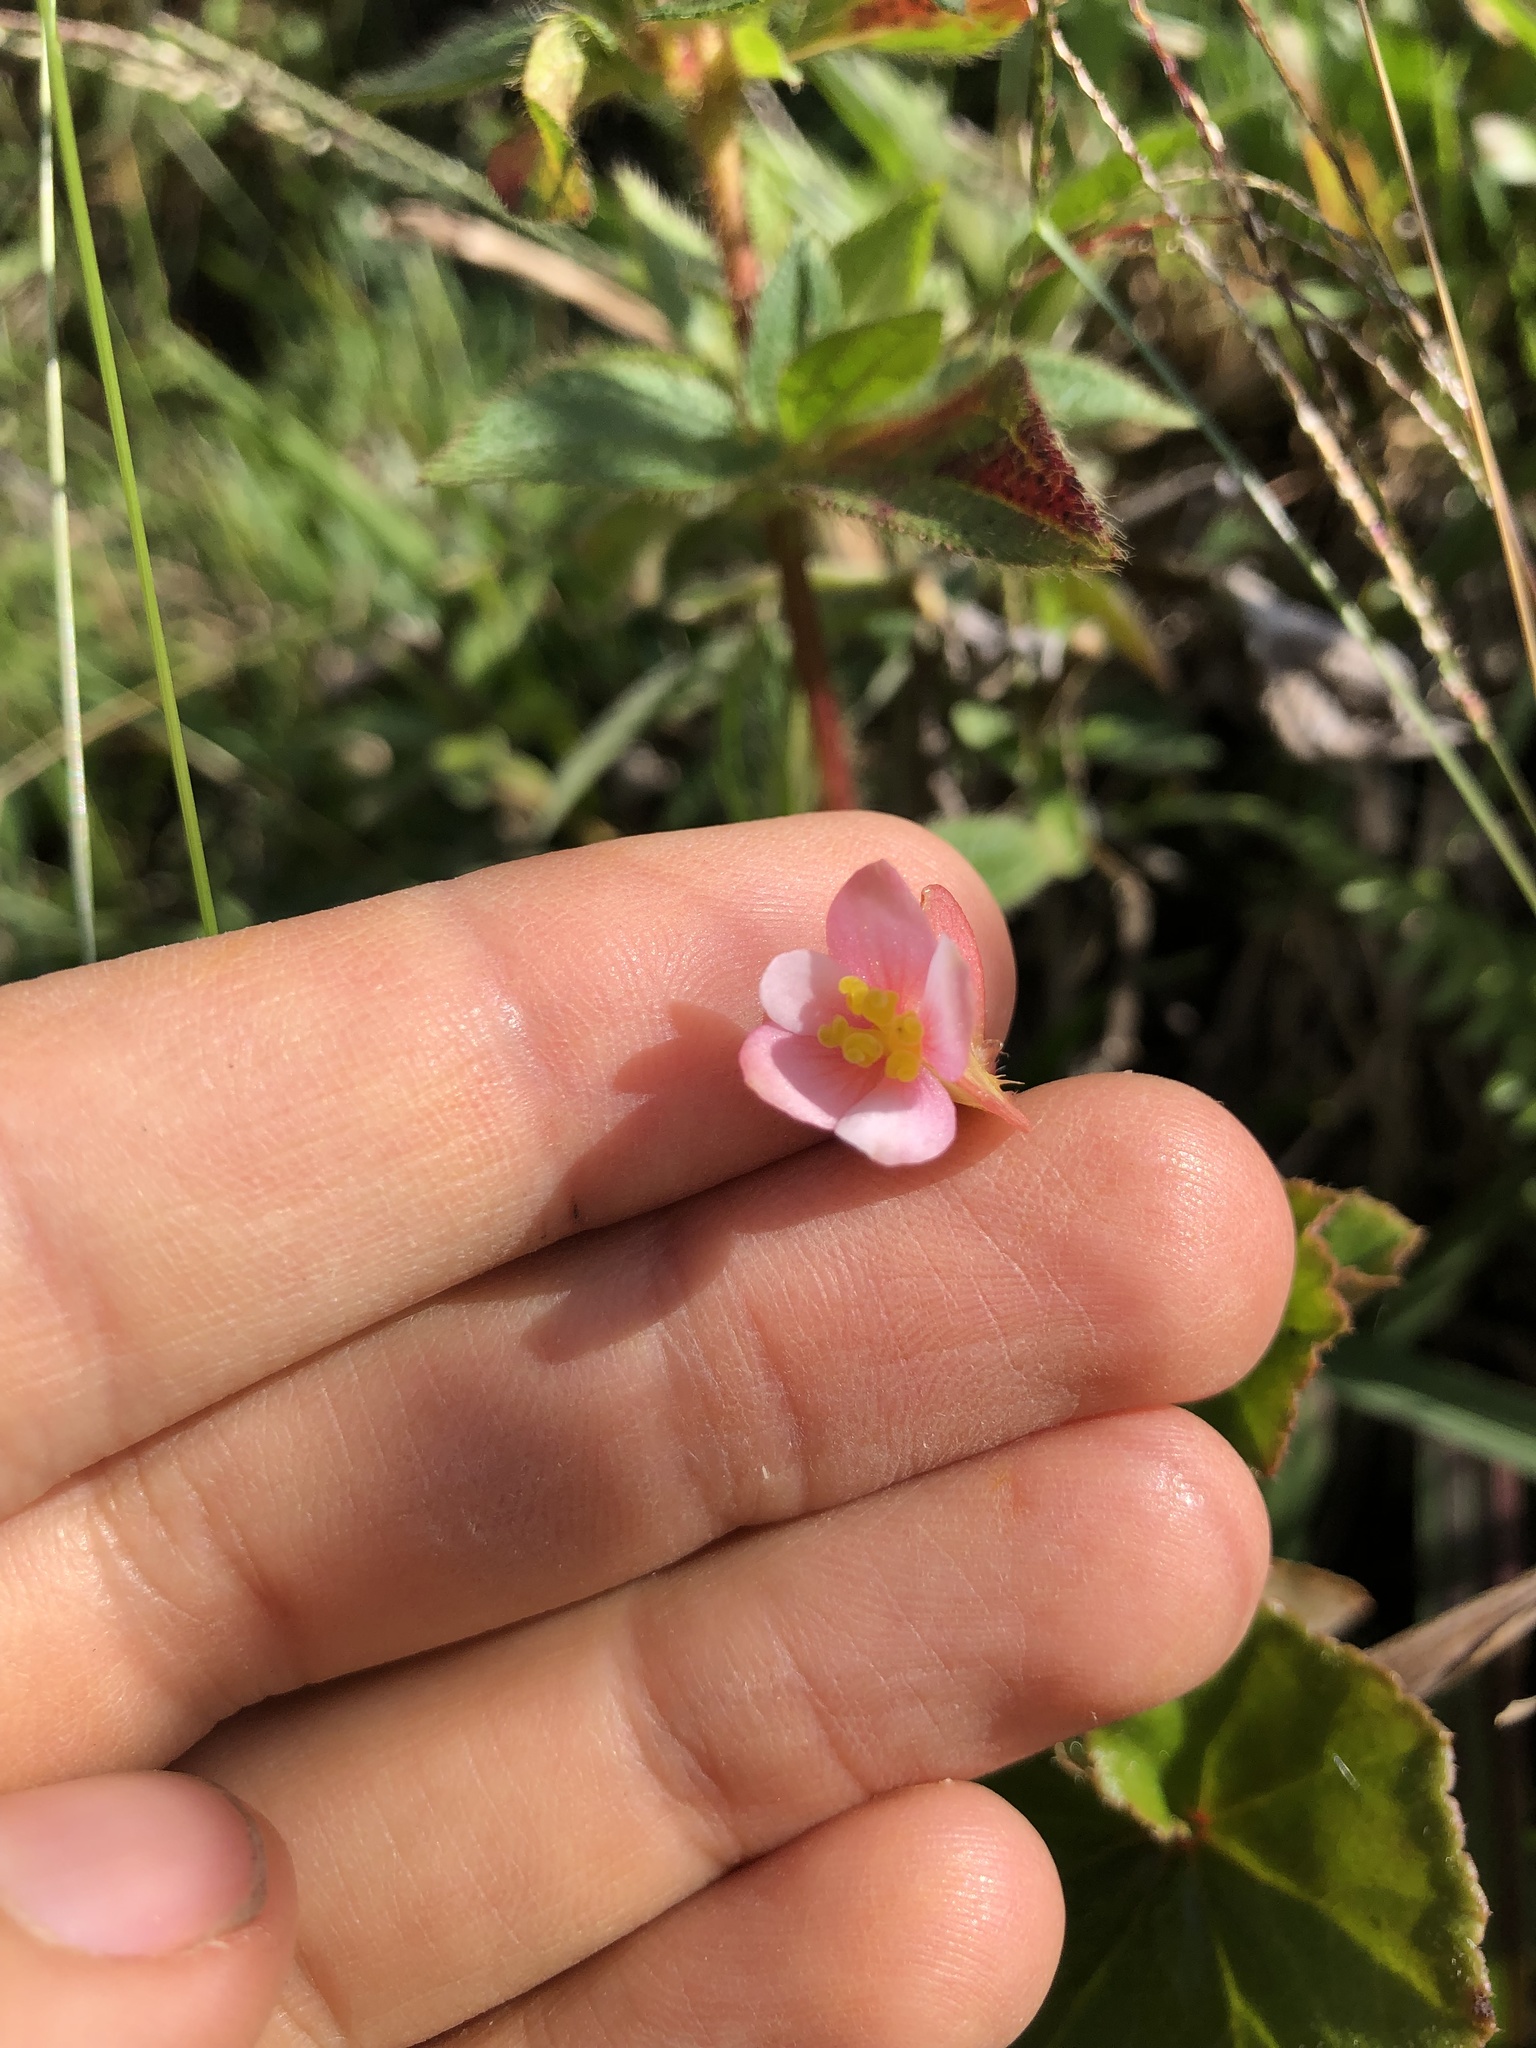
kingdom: Plantae
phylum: Tracheophyta
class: Magnoliopsida
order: Cucurbitales
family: Begoniaceae
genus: Begonia
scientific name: Begonia fischeri
